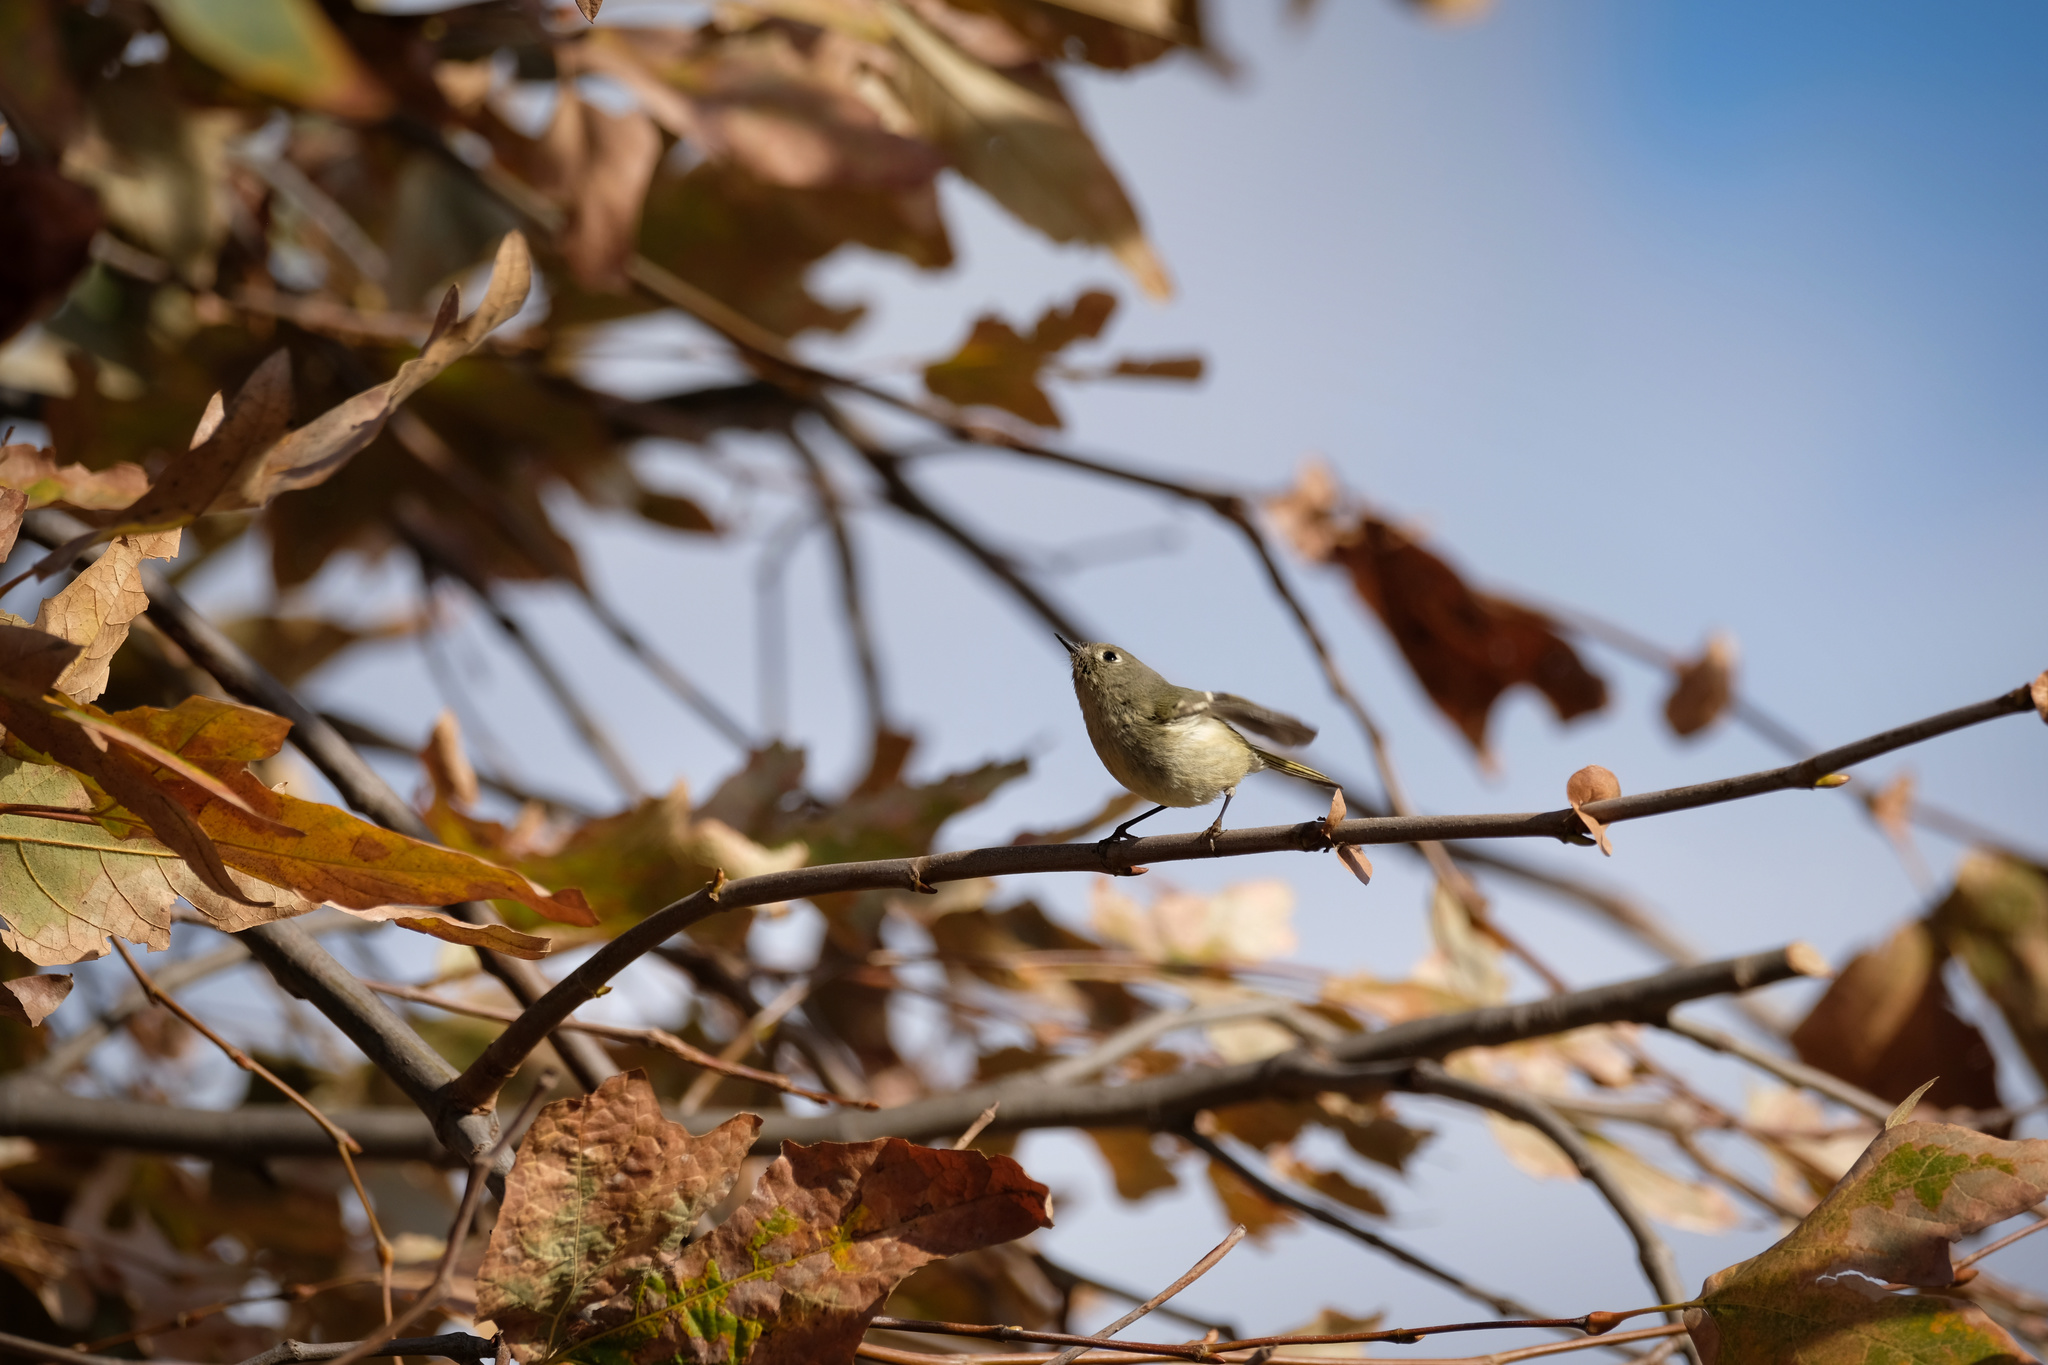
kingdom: Animalia
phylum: Chordata
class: Aves
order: Passeriformes
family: Regulidae
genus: Regulus
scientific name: Regulus calendula
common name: Ruby-crowned kinglet
